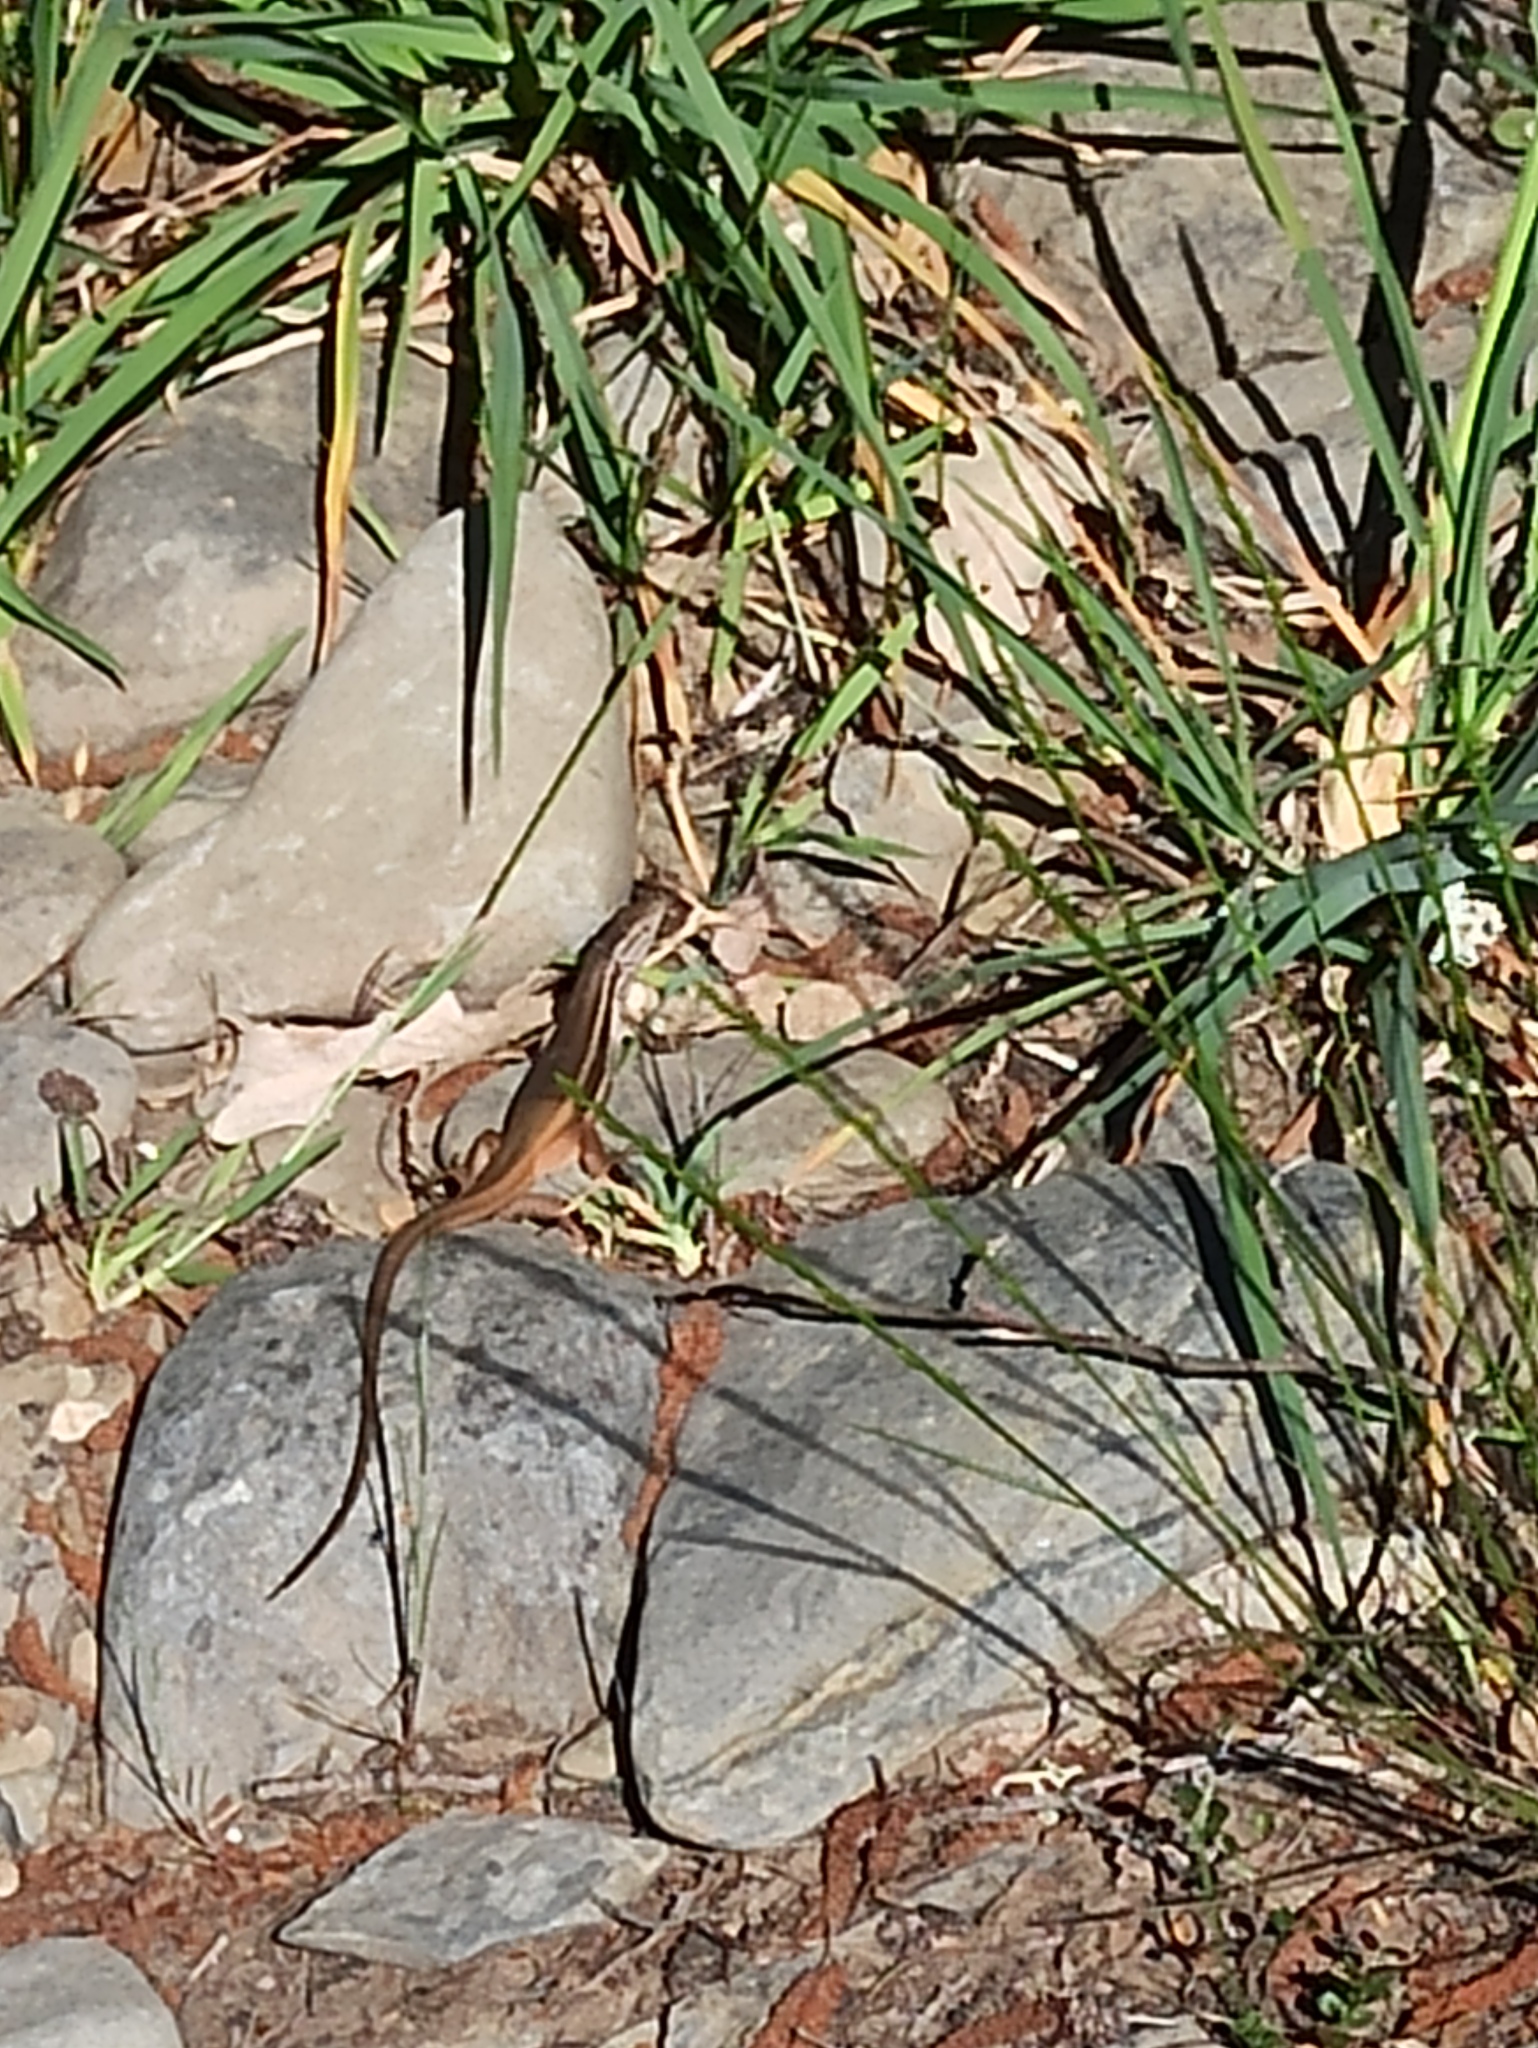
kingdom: Animalia
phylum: Chordata
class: Squamata
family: Lacertidae
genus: Psammodromus
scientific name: Psammodromus algirus
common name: Algerian psammodromus
